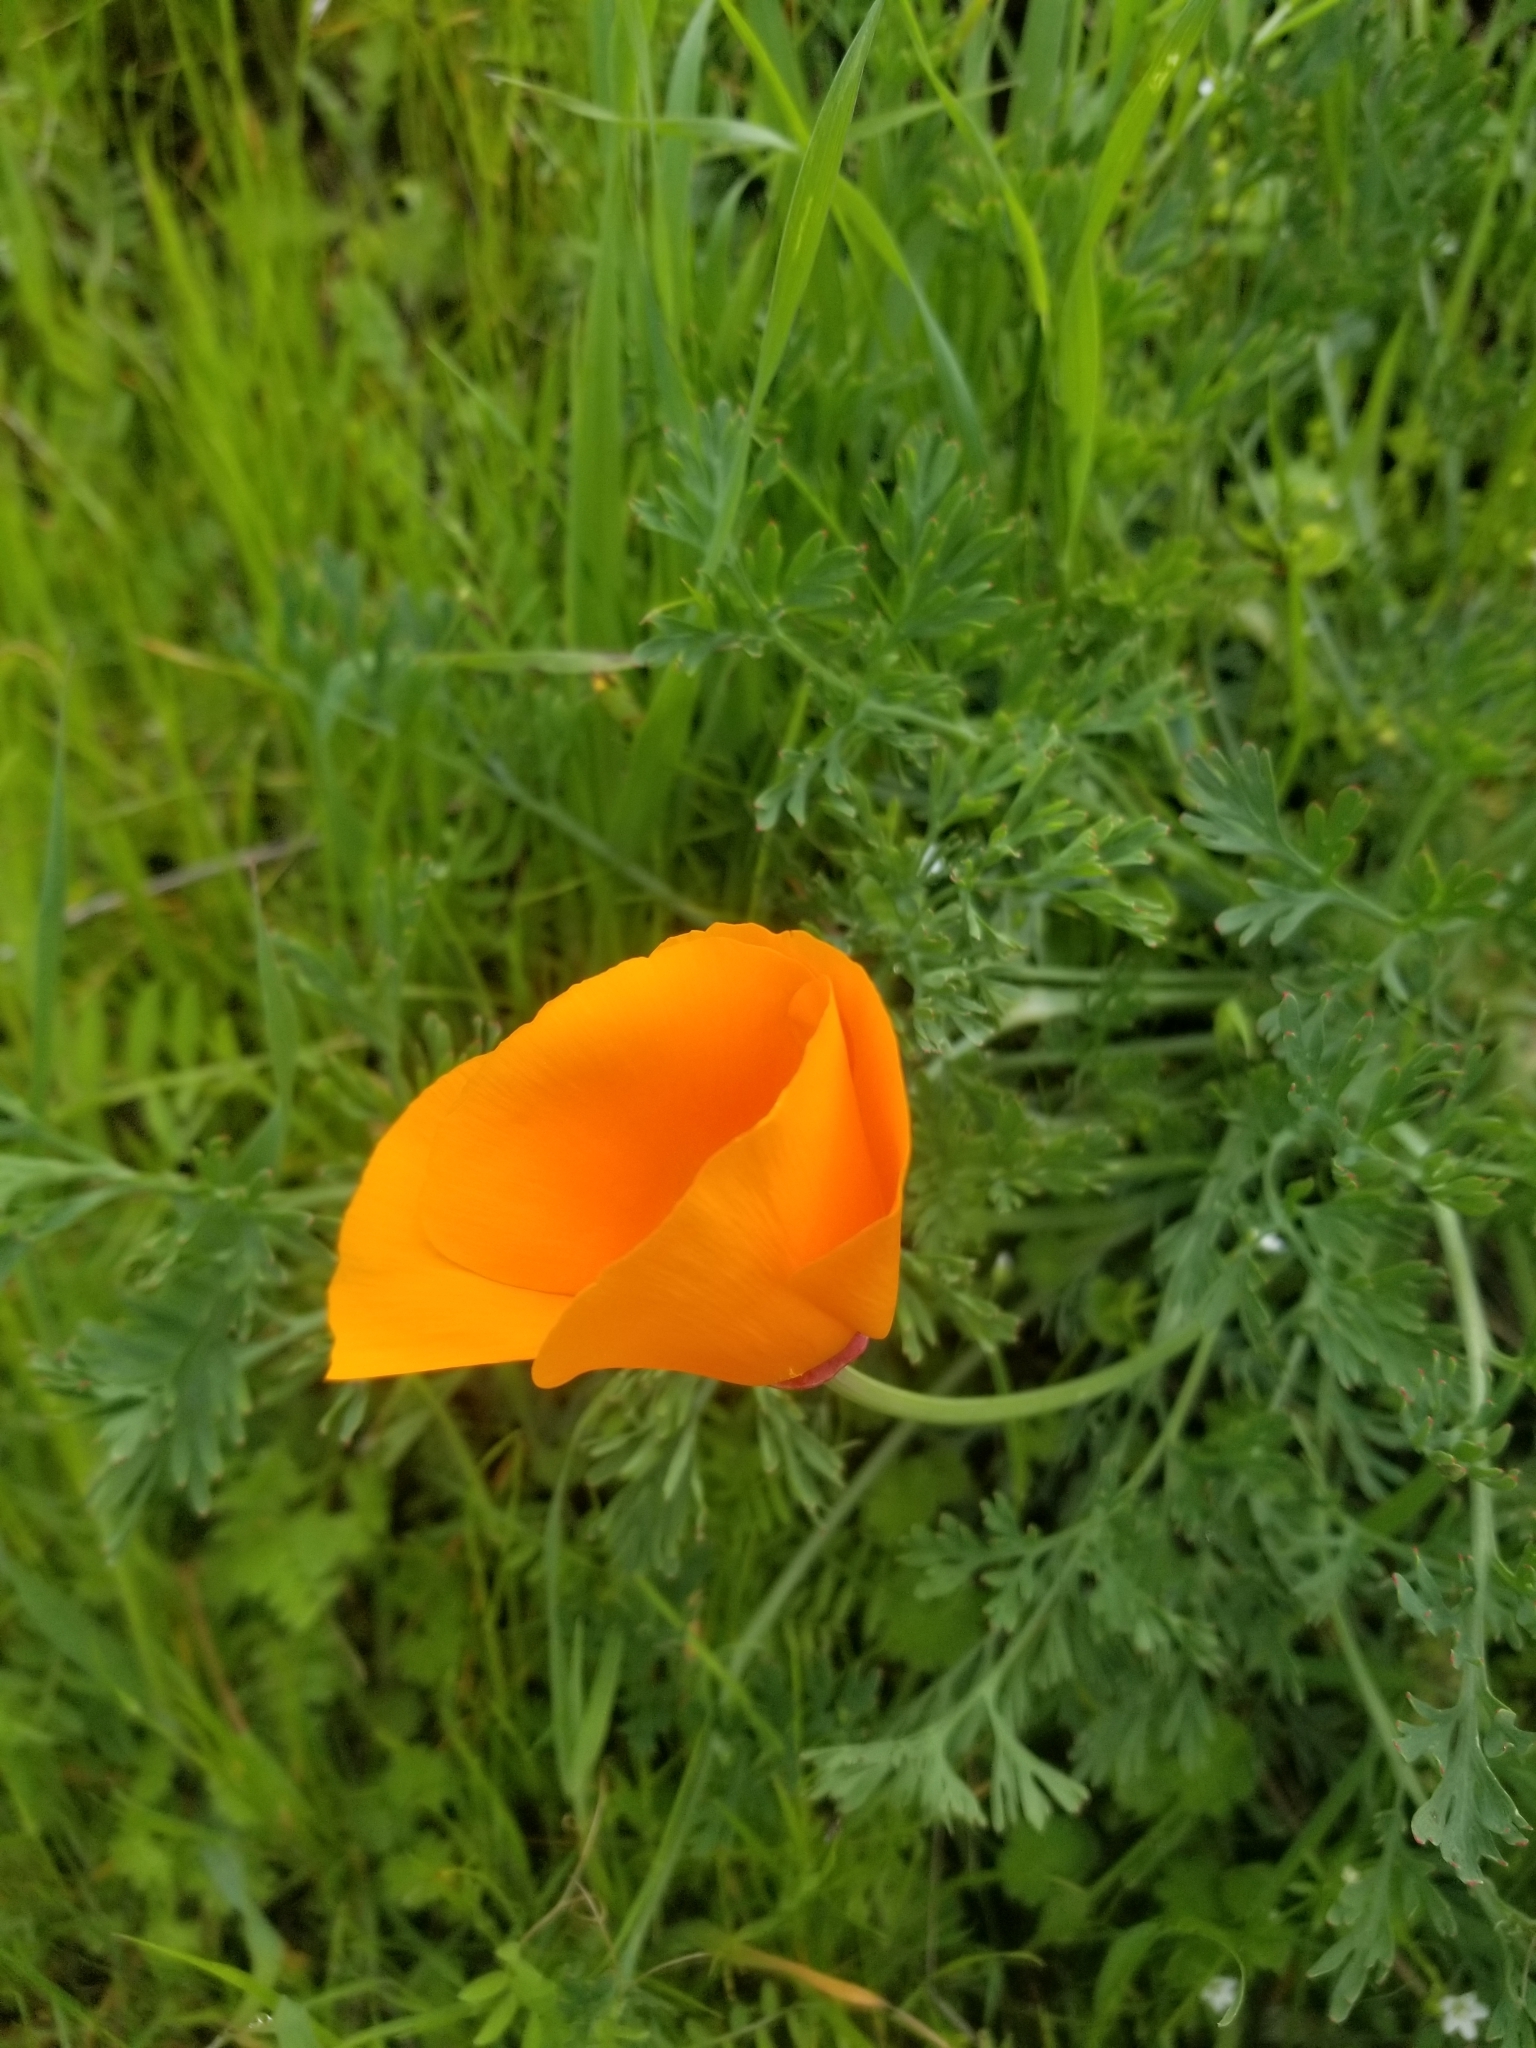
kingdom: Plantae
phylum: Tracheophyta
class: Magnoliopsida
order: Ranunculales
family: Papaveraceae
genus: Eschscholzia
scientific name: Eschscholzia californica
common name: California poppy
